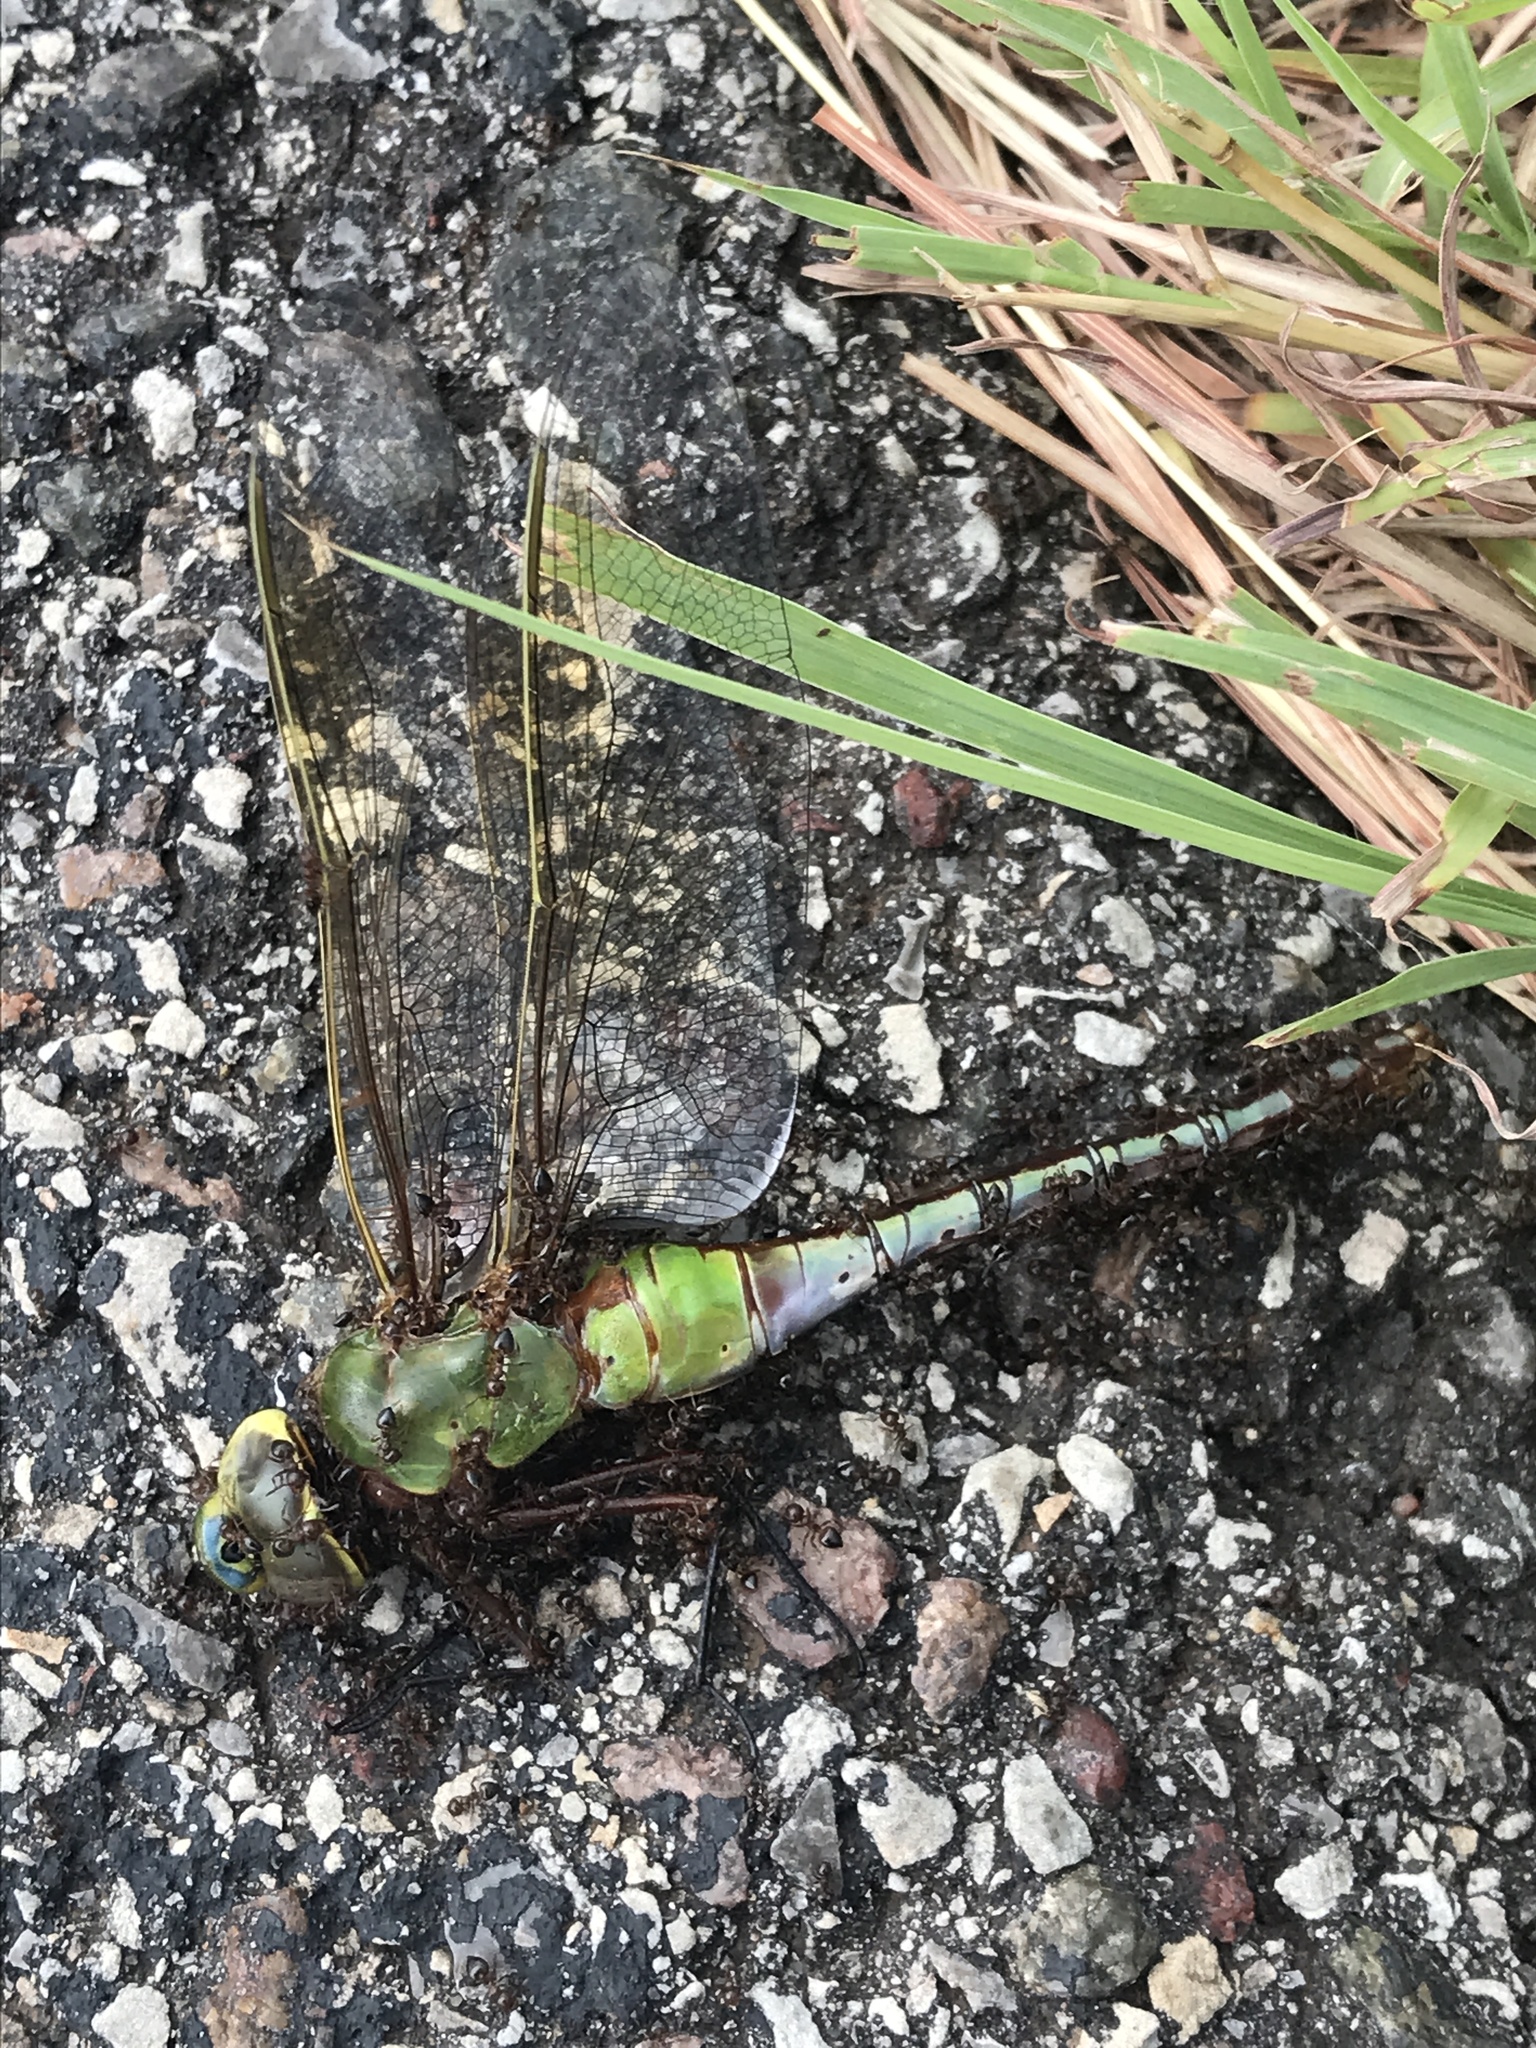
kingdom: Animalia
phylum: Arthropoda
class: Insecta
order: Odonata
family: Aeshnidae
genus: Anax
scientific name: Anax junius
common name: Common green darner
